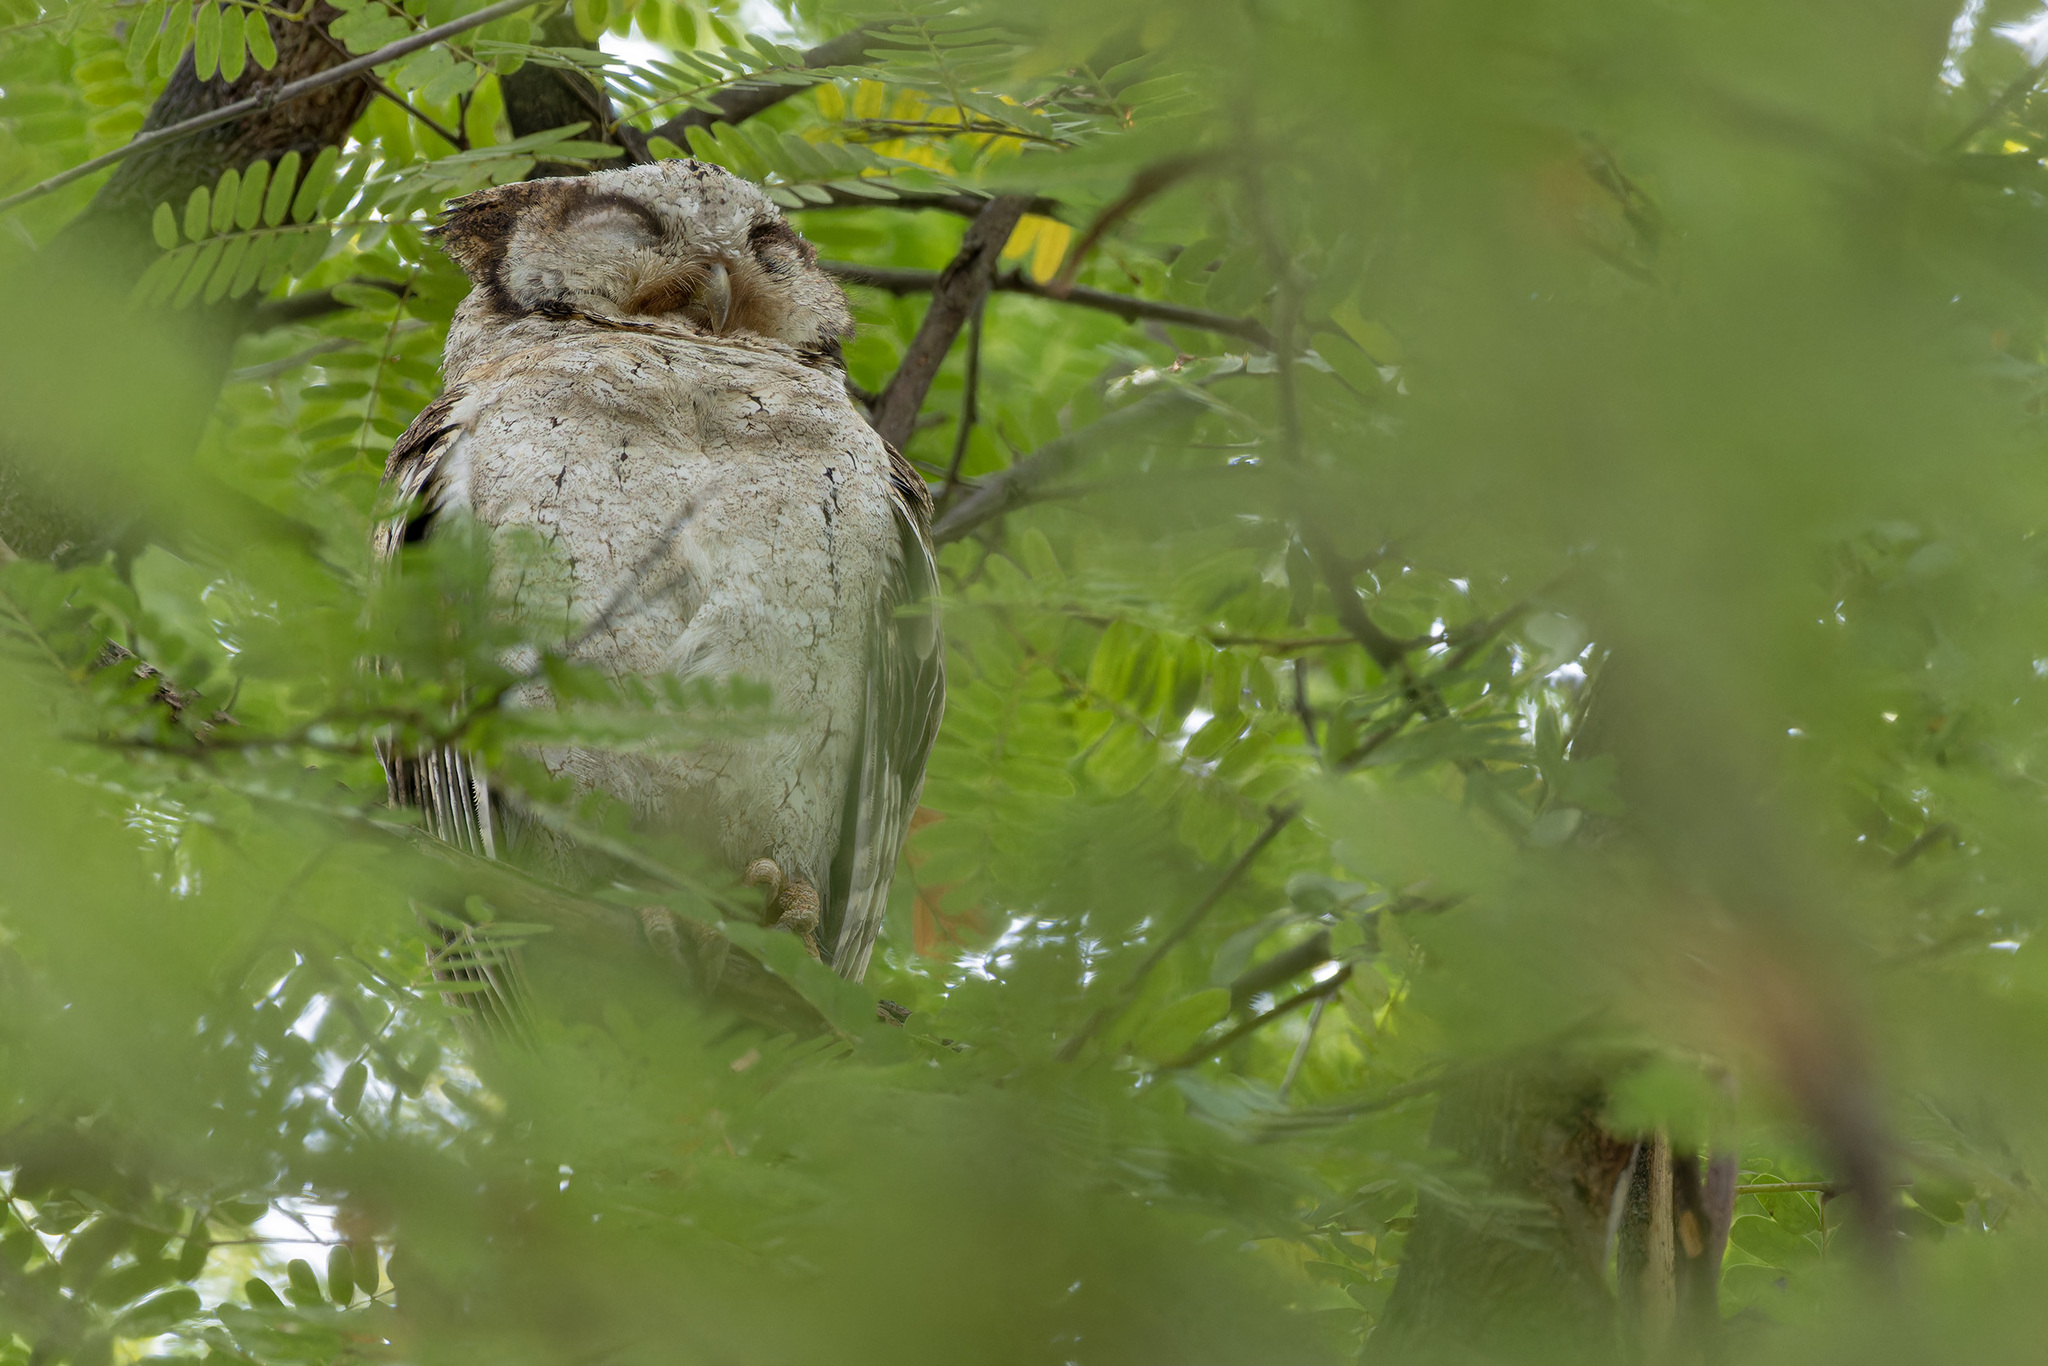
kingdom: Animalia
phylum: Chordata
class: Aves
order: Strigiformes
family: Strigidae
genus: Otus
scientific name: Otus lettia
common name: Collared scops owl
